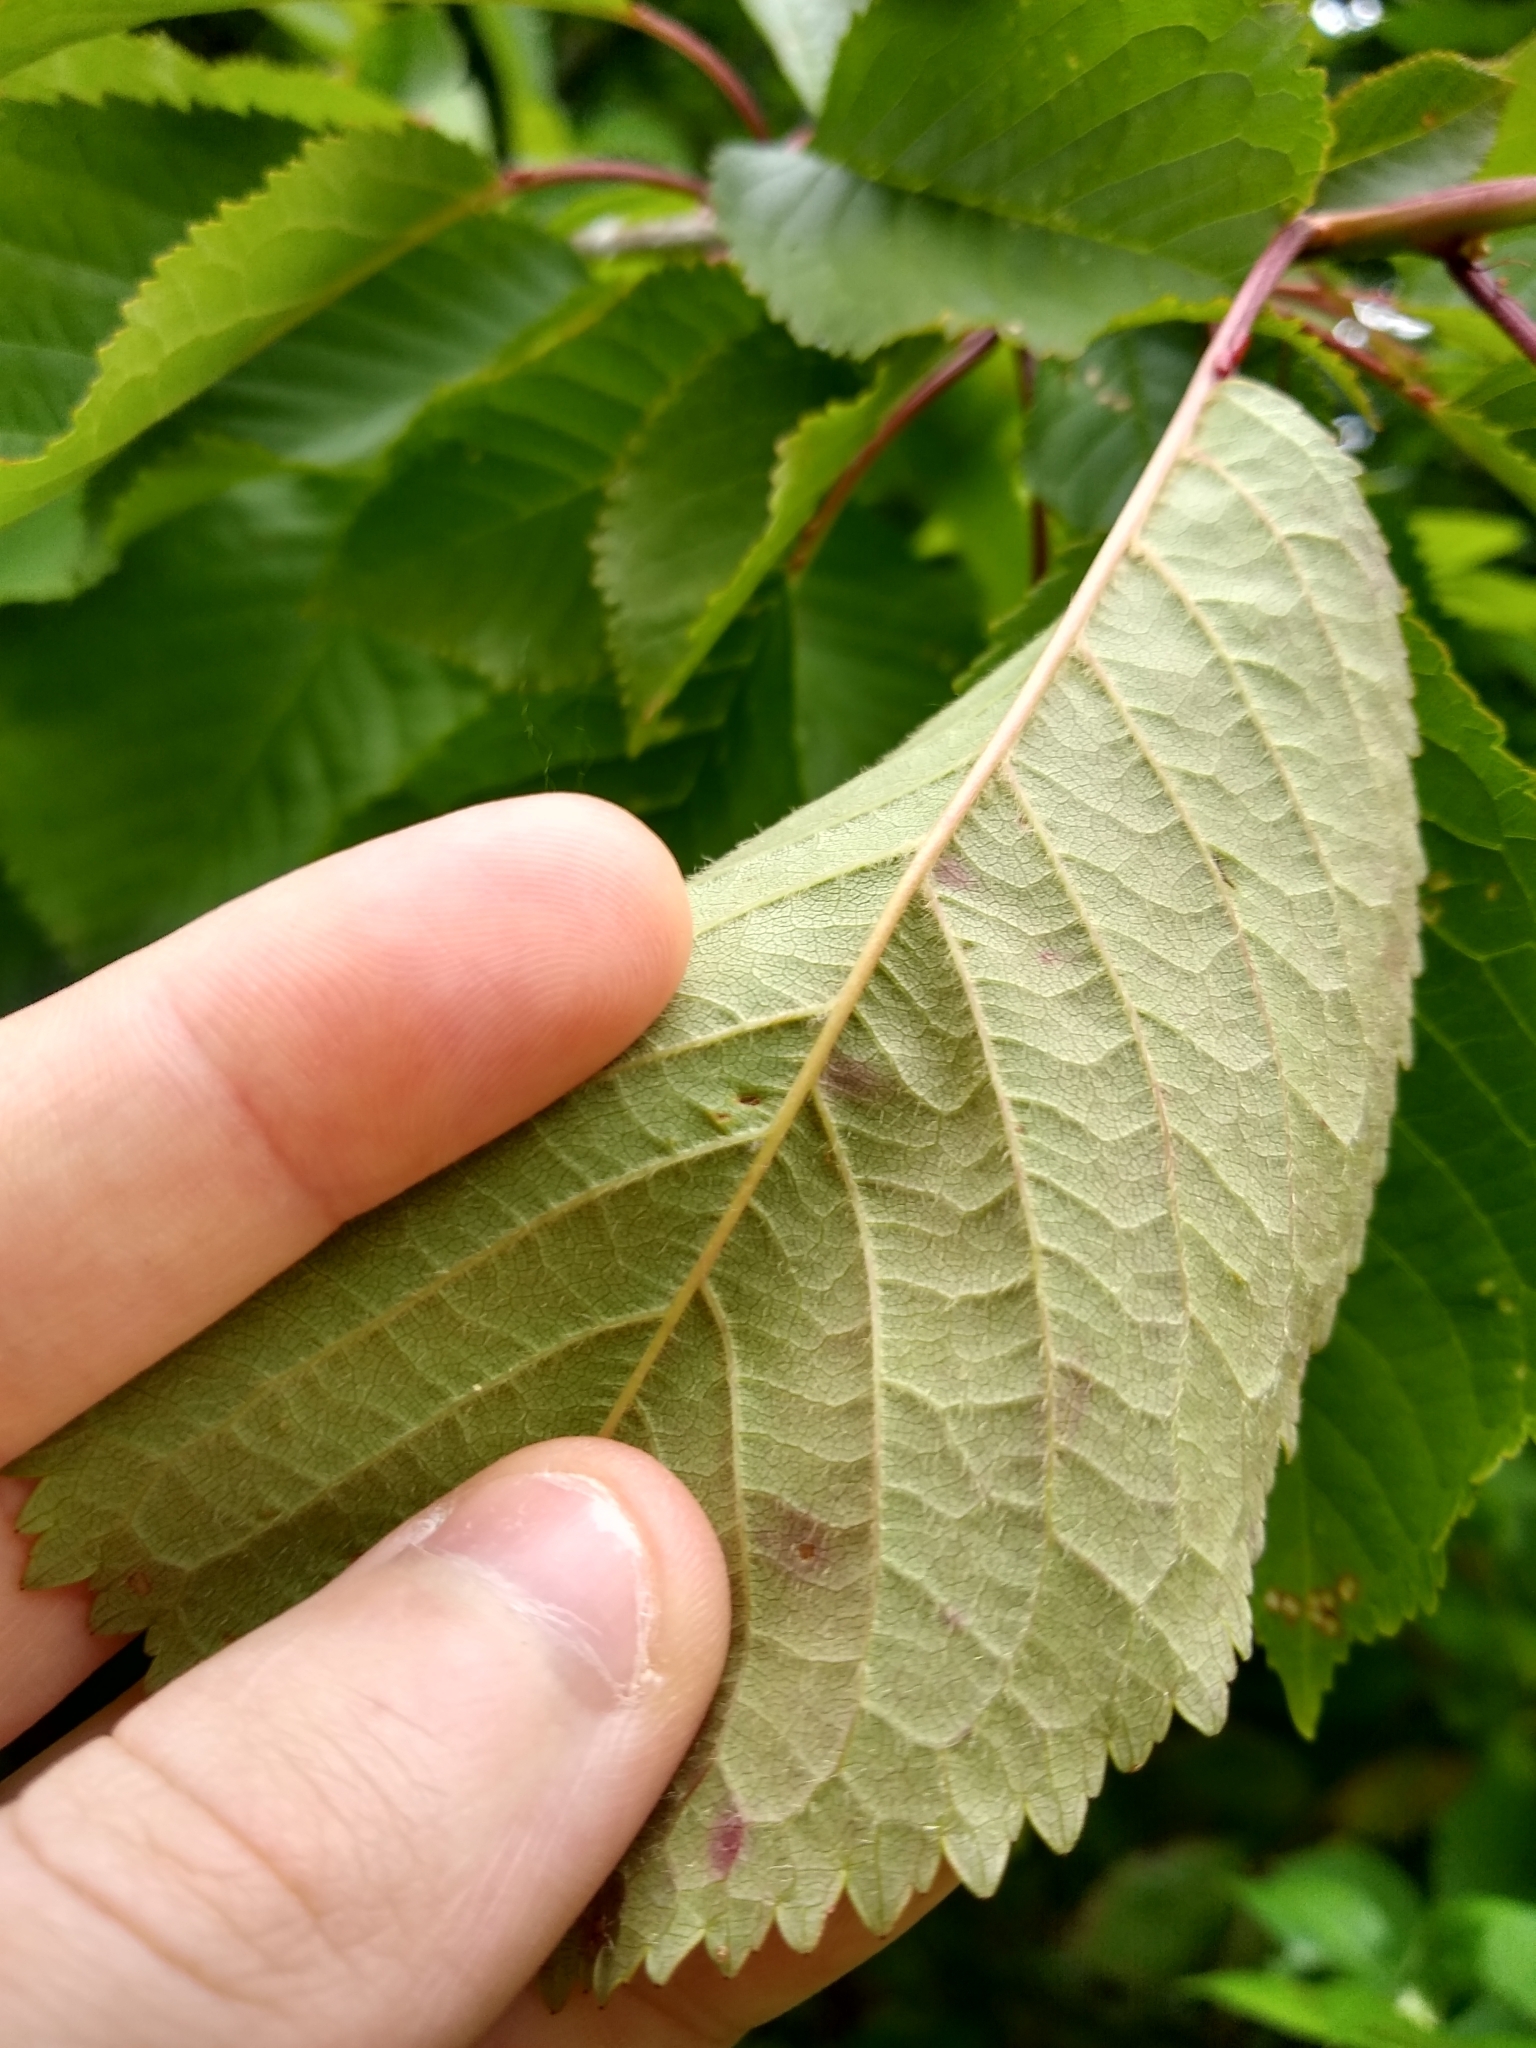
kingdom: Plantae
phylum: Tracheophyta
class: Magnoliopsida
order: Rosales
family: Rosaceae
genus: Prunus
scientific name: Prunus
